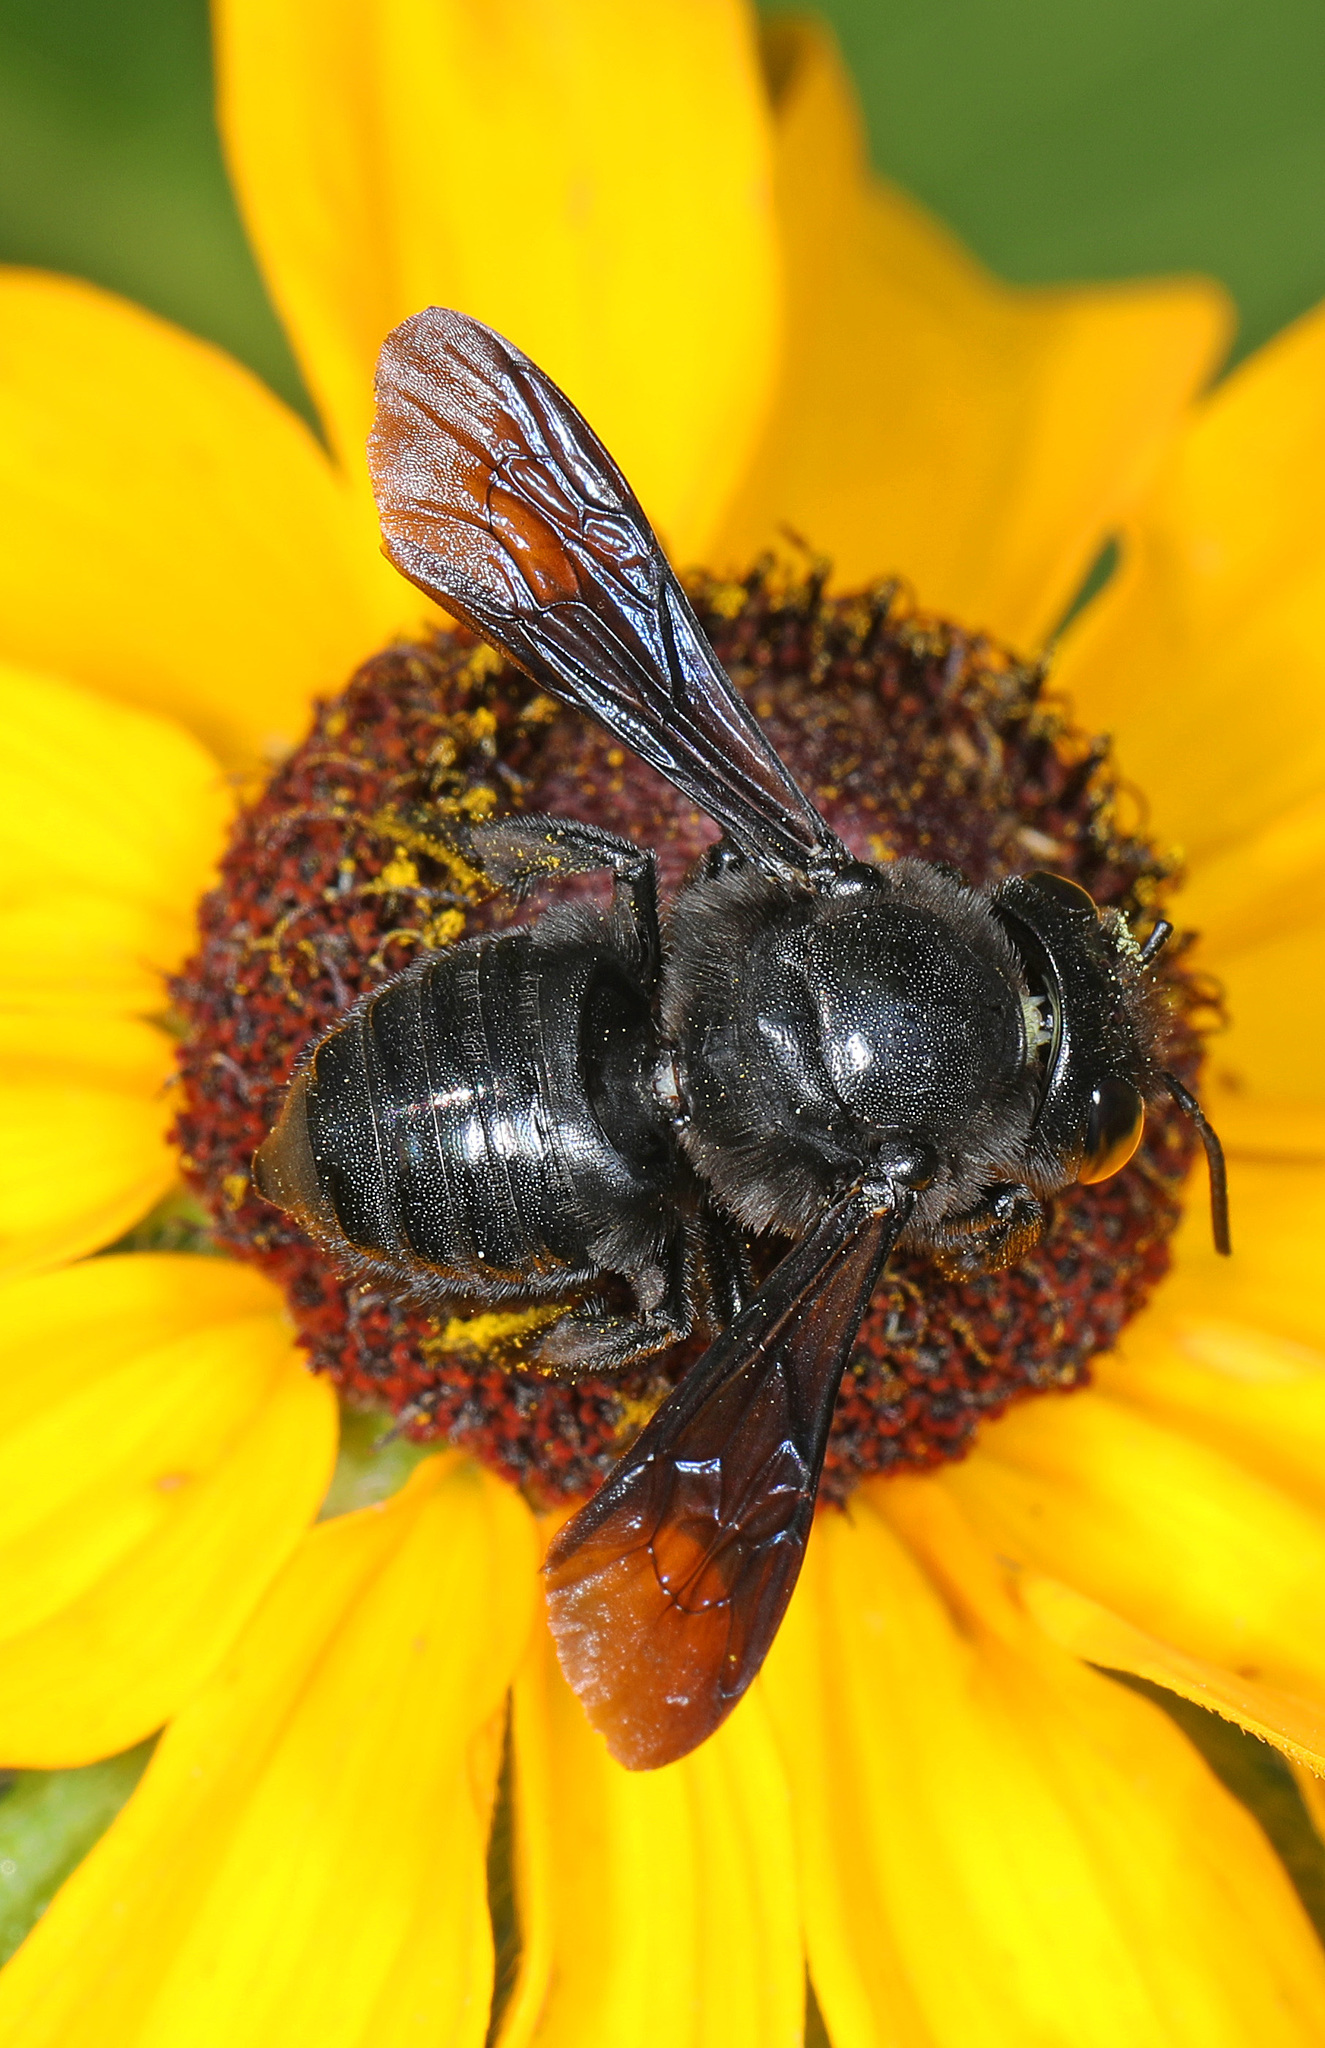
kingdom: Animalia
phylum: Arthropoda
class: Insecta
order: Hymenoptera
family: Megachilidae
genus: Megachile
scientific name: Megachile xylocopoides
